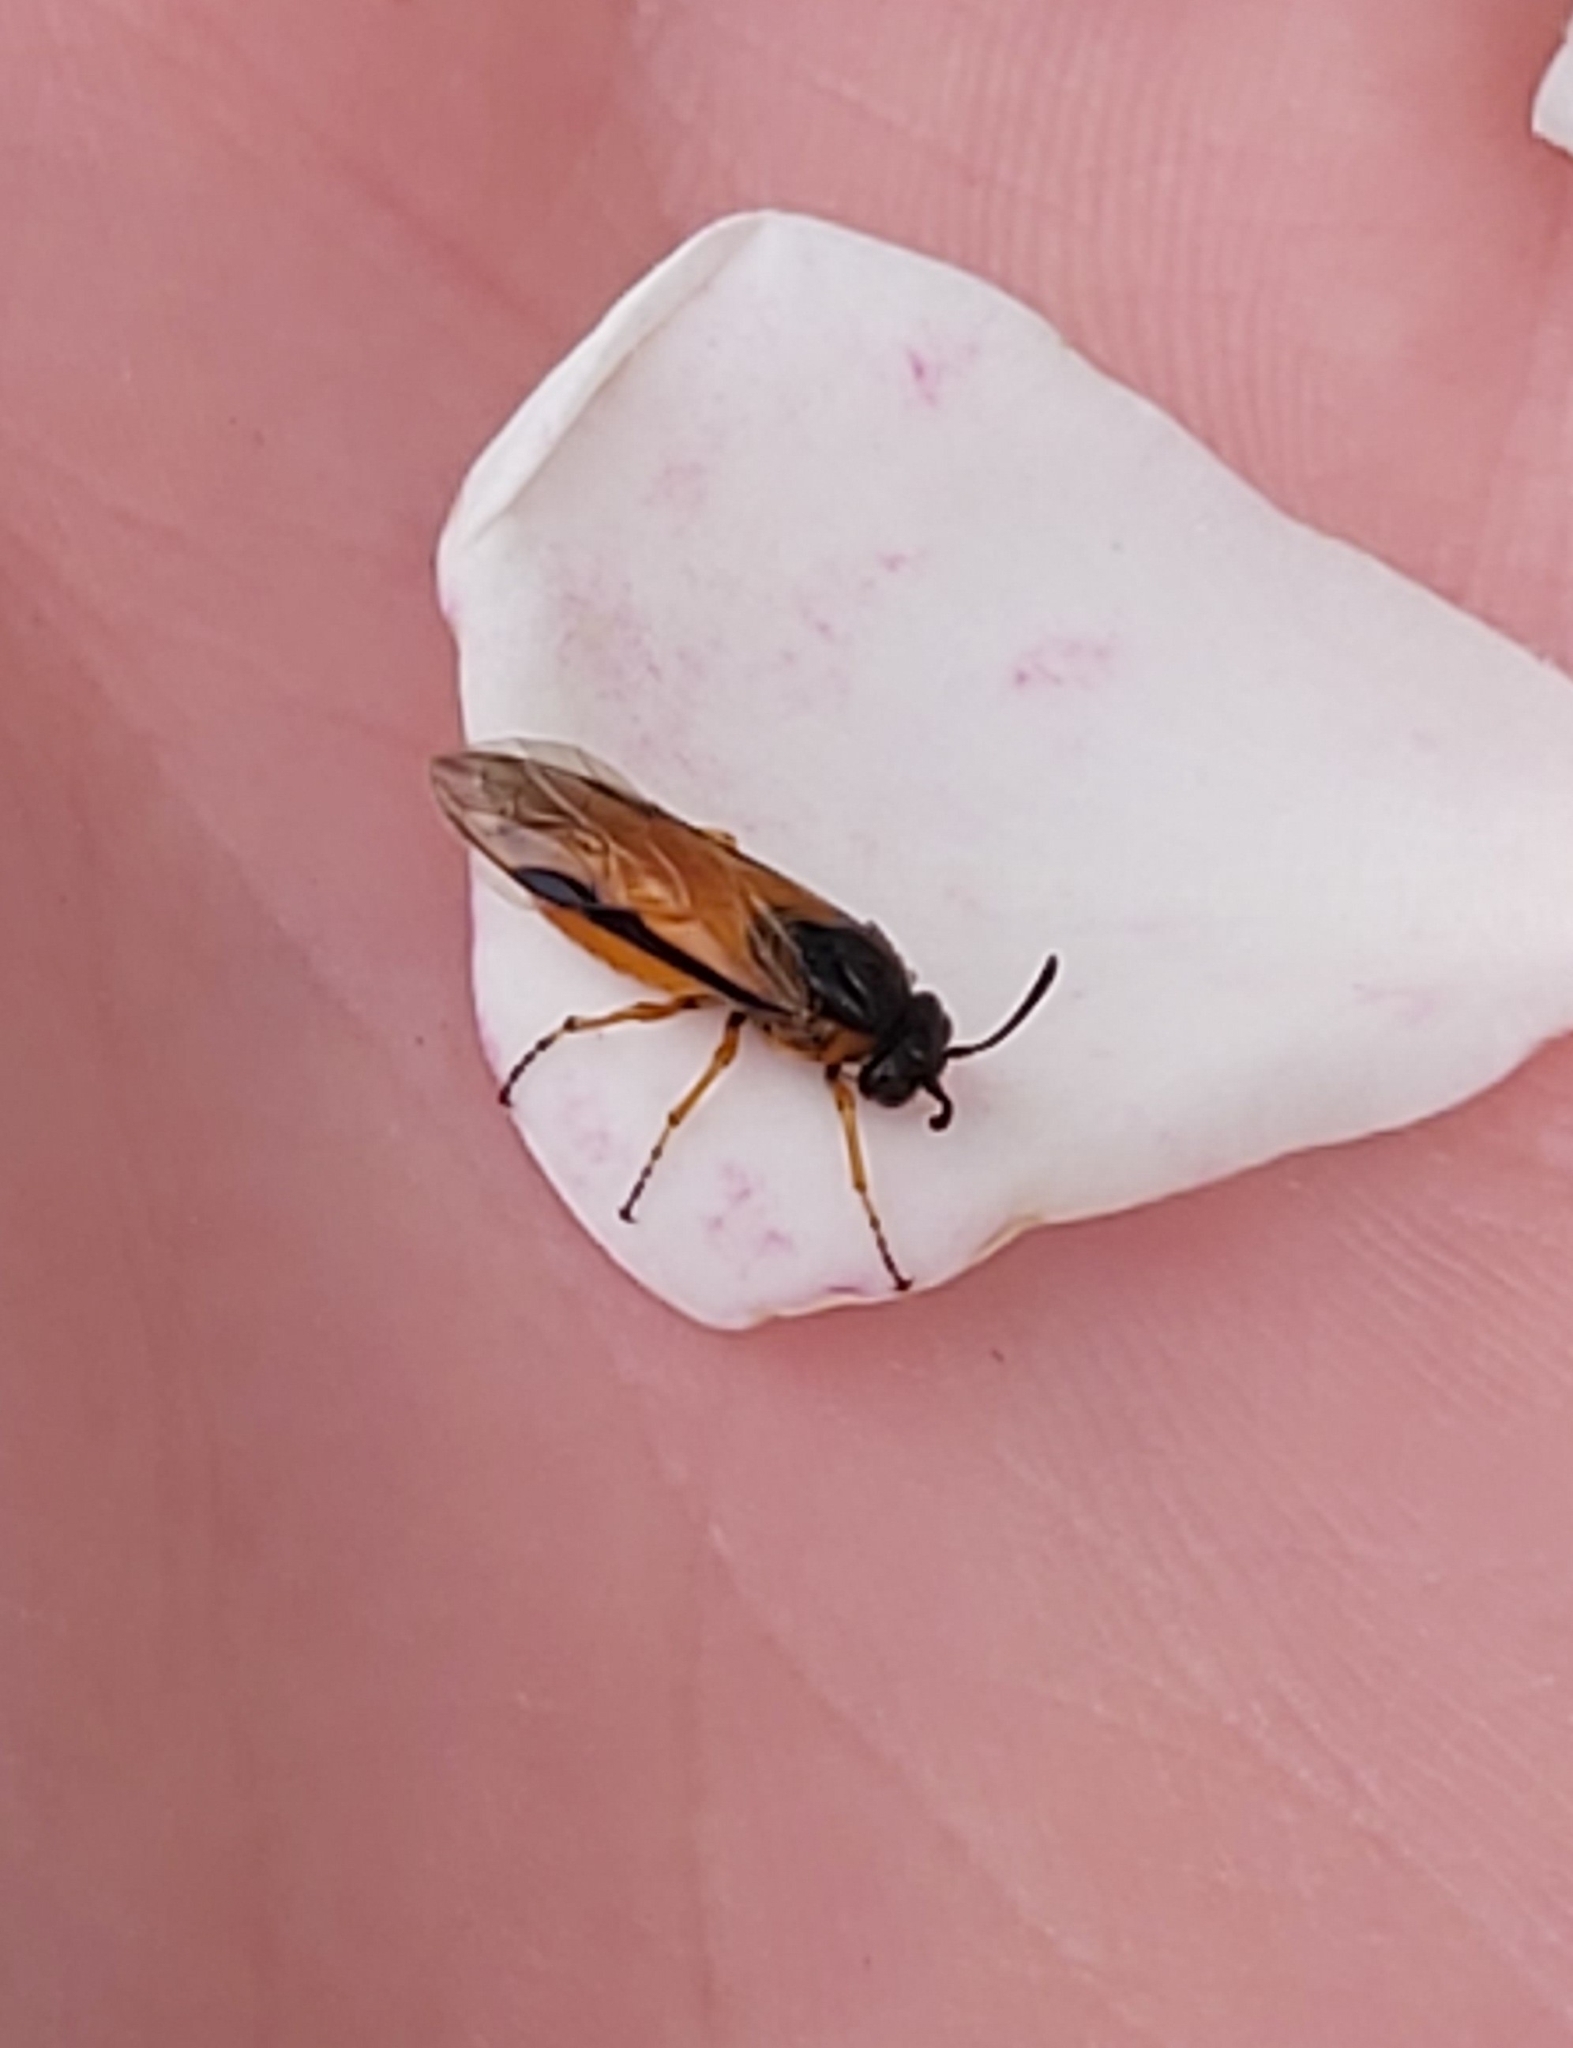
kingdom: Animalia
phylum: Arthropoda
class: Insecta
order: Hymenoptera
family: Argidae
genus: Arge
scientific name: Arge ochropus
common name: Argid sawfly
